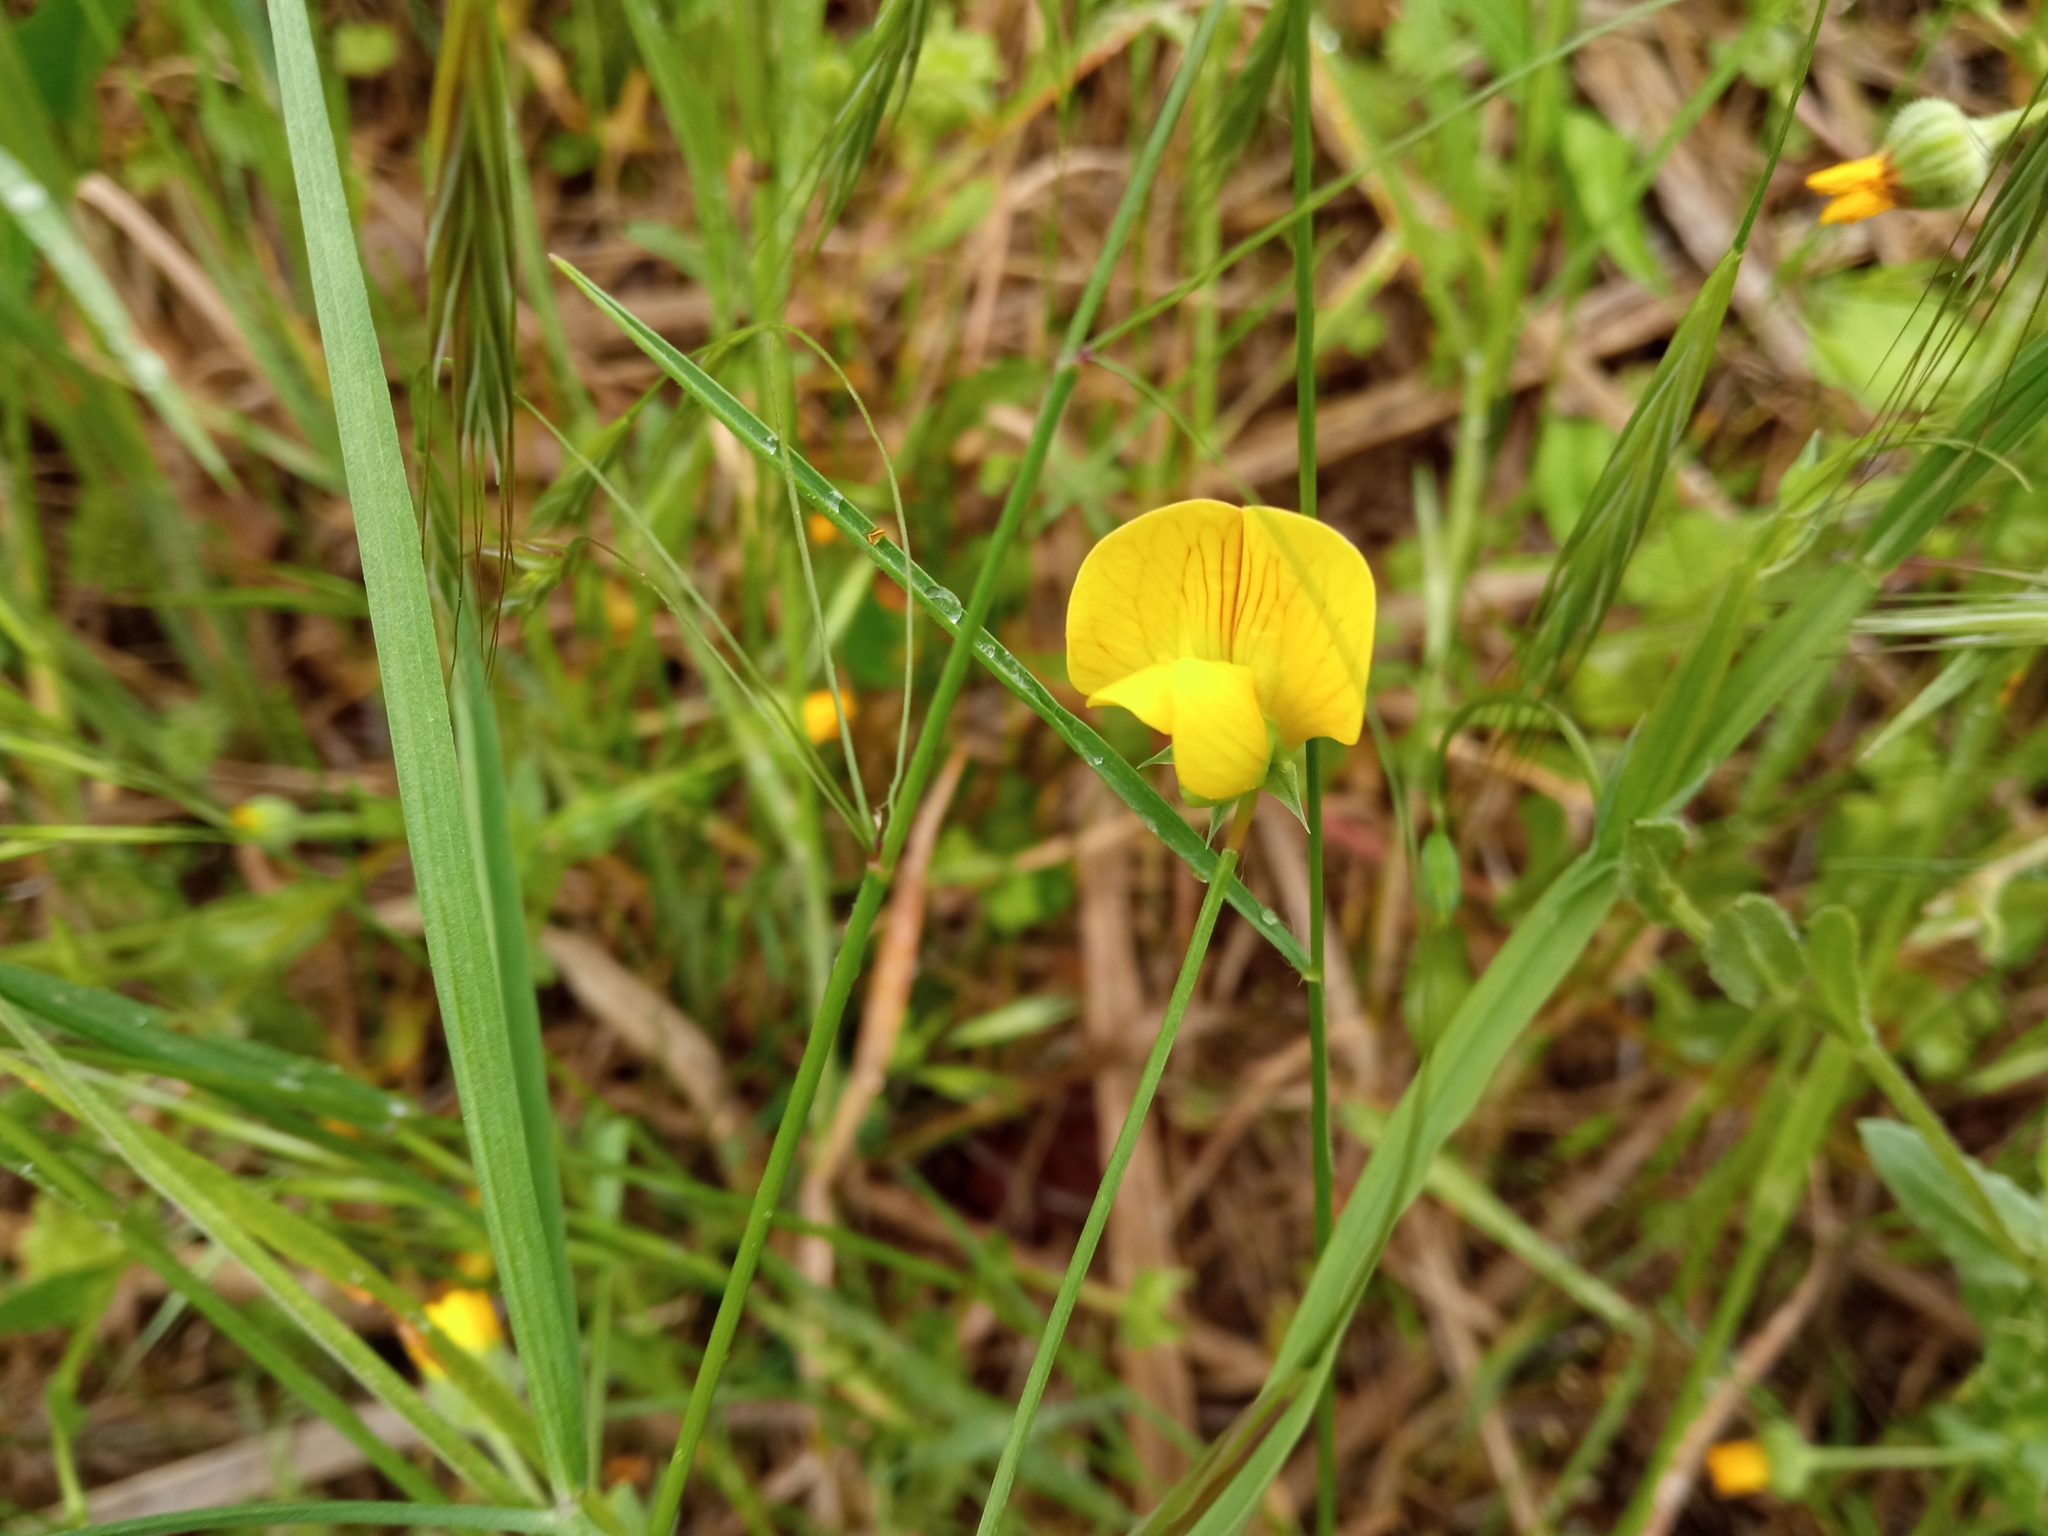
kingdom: Plantae
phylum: Tracheophyta
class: Magnoliopsida
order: Fabales
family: Fabaceae
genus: Lathyrus
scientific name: Lathyrus annuus
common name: Fodder pea
